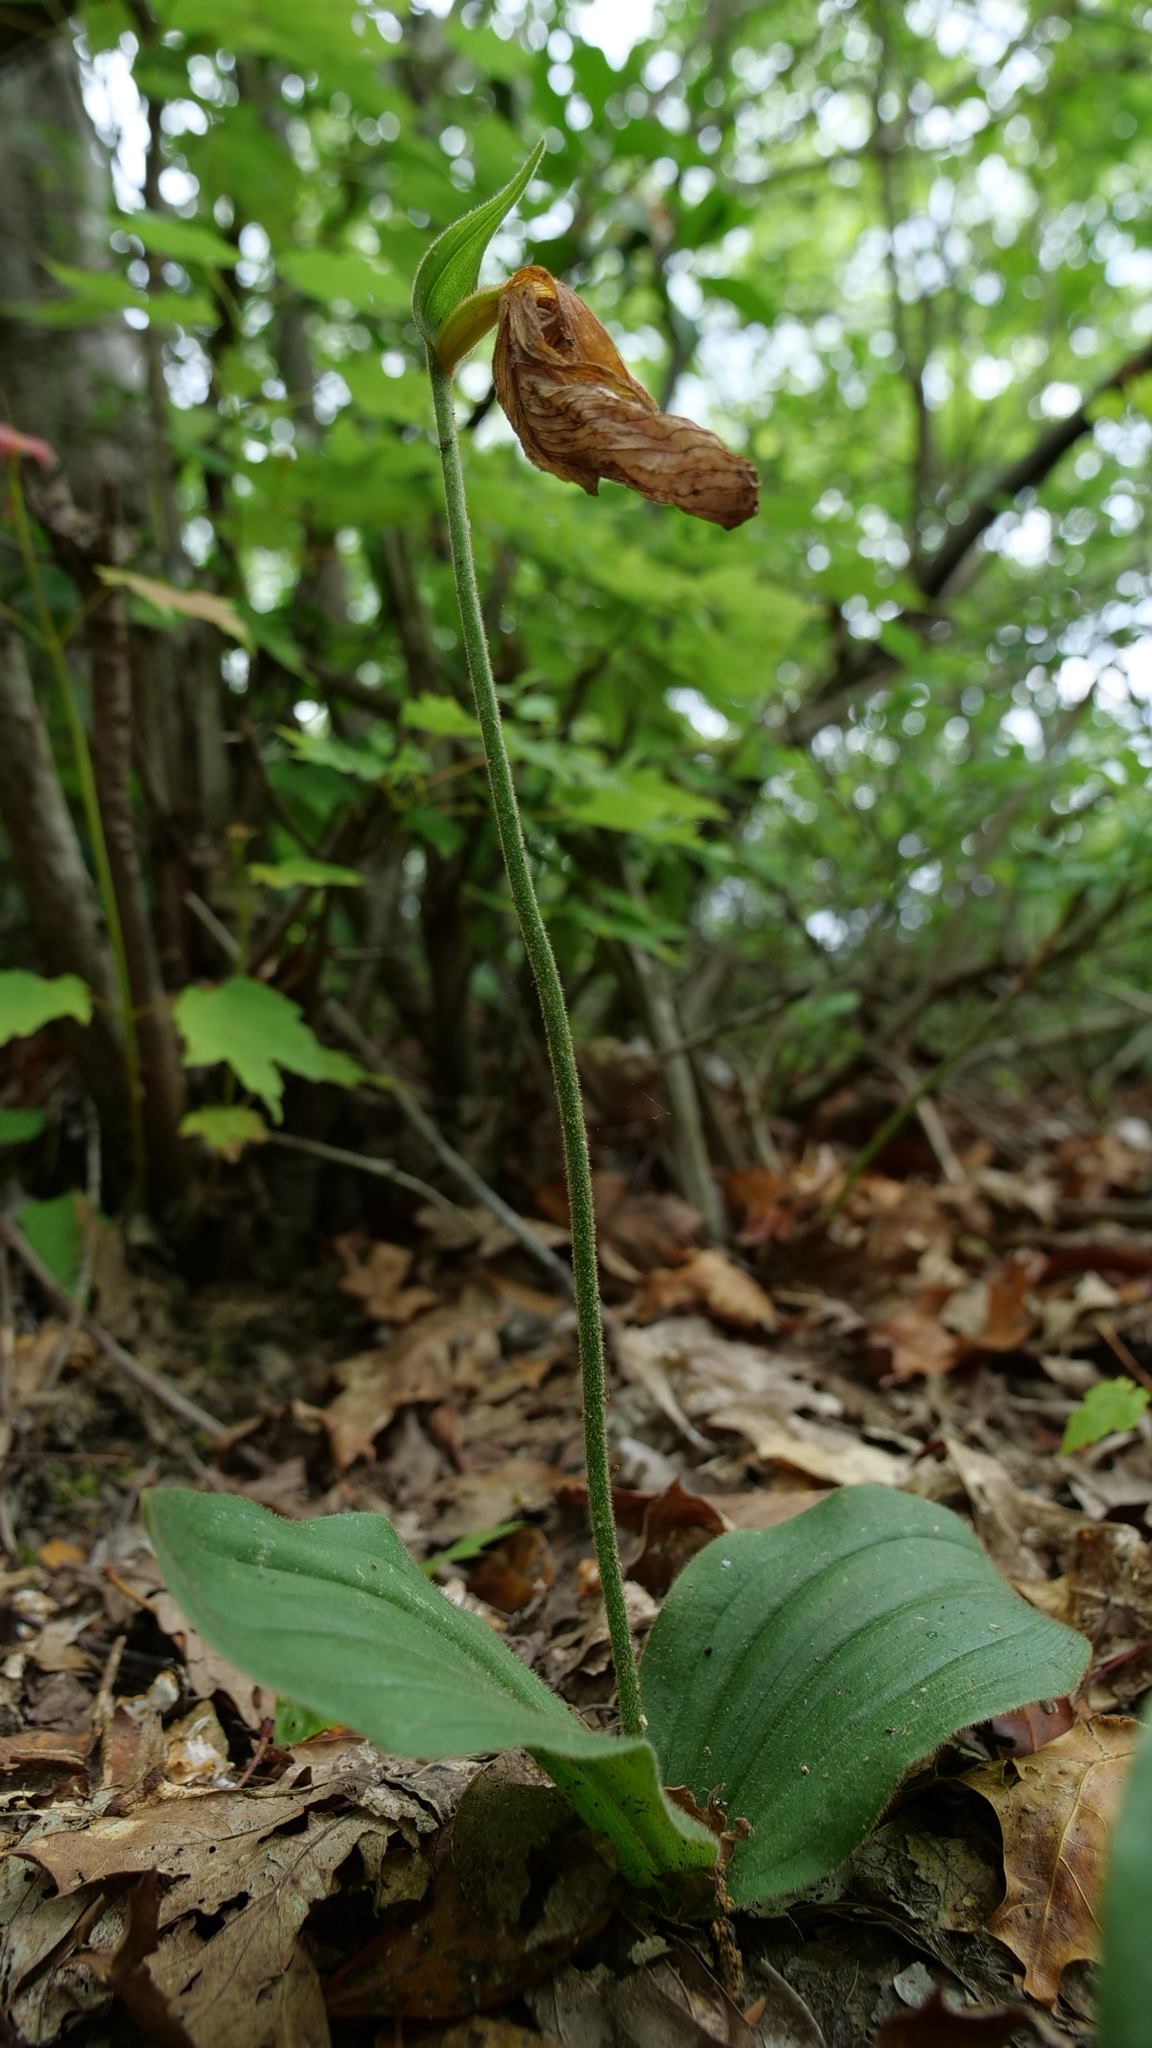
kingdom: Plantae
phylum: Tracheophyta
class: Liliopsida
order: Asparagales
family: Orchidaceae
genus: Cypripedium
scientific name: Cypripedium acaule
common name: Pink lady's-slipper
